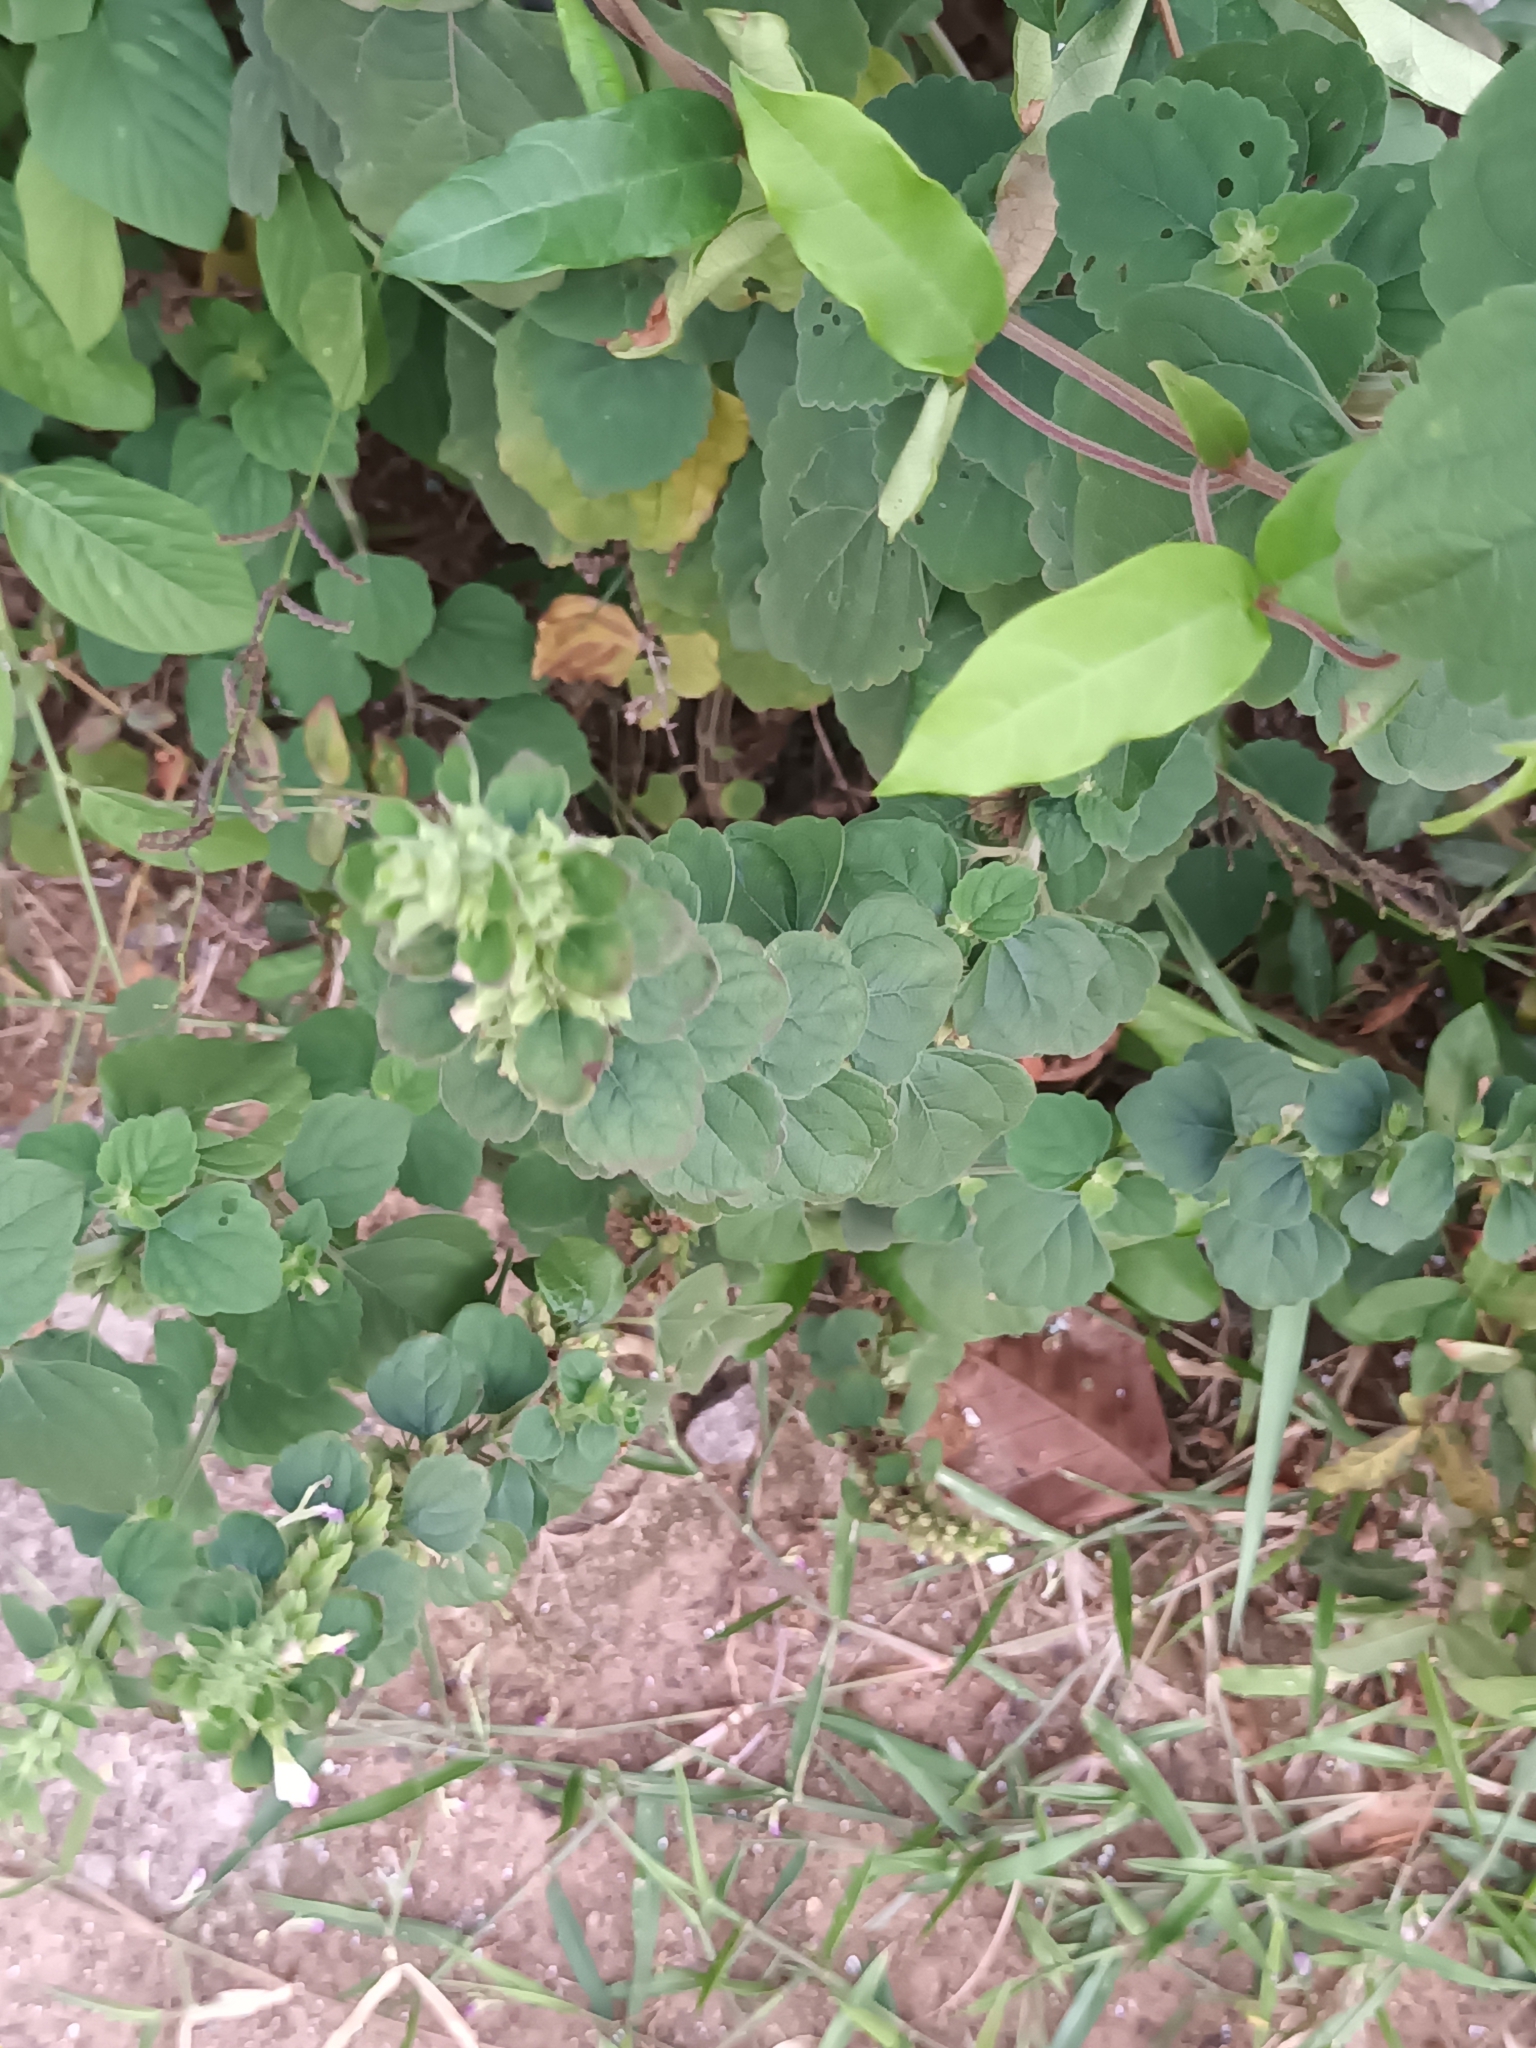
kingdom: Plantae
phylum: Tracheophyta
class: Magnoliopsida
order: Lamiales
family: Lamiaceae
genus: Anisomeles
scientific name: Anisomeles indica
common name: Catmint
